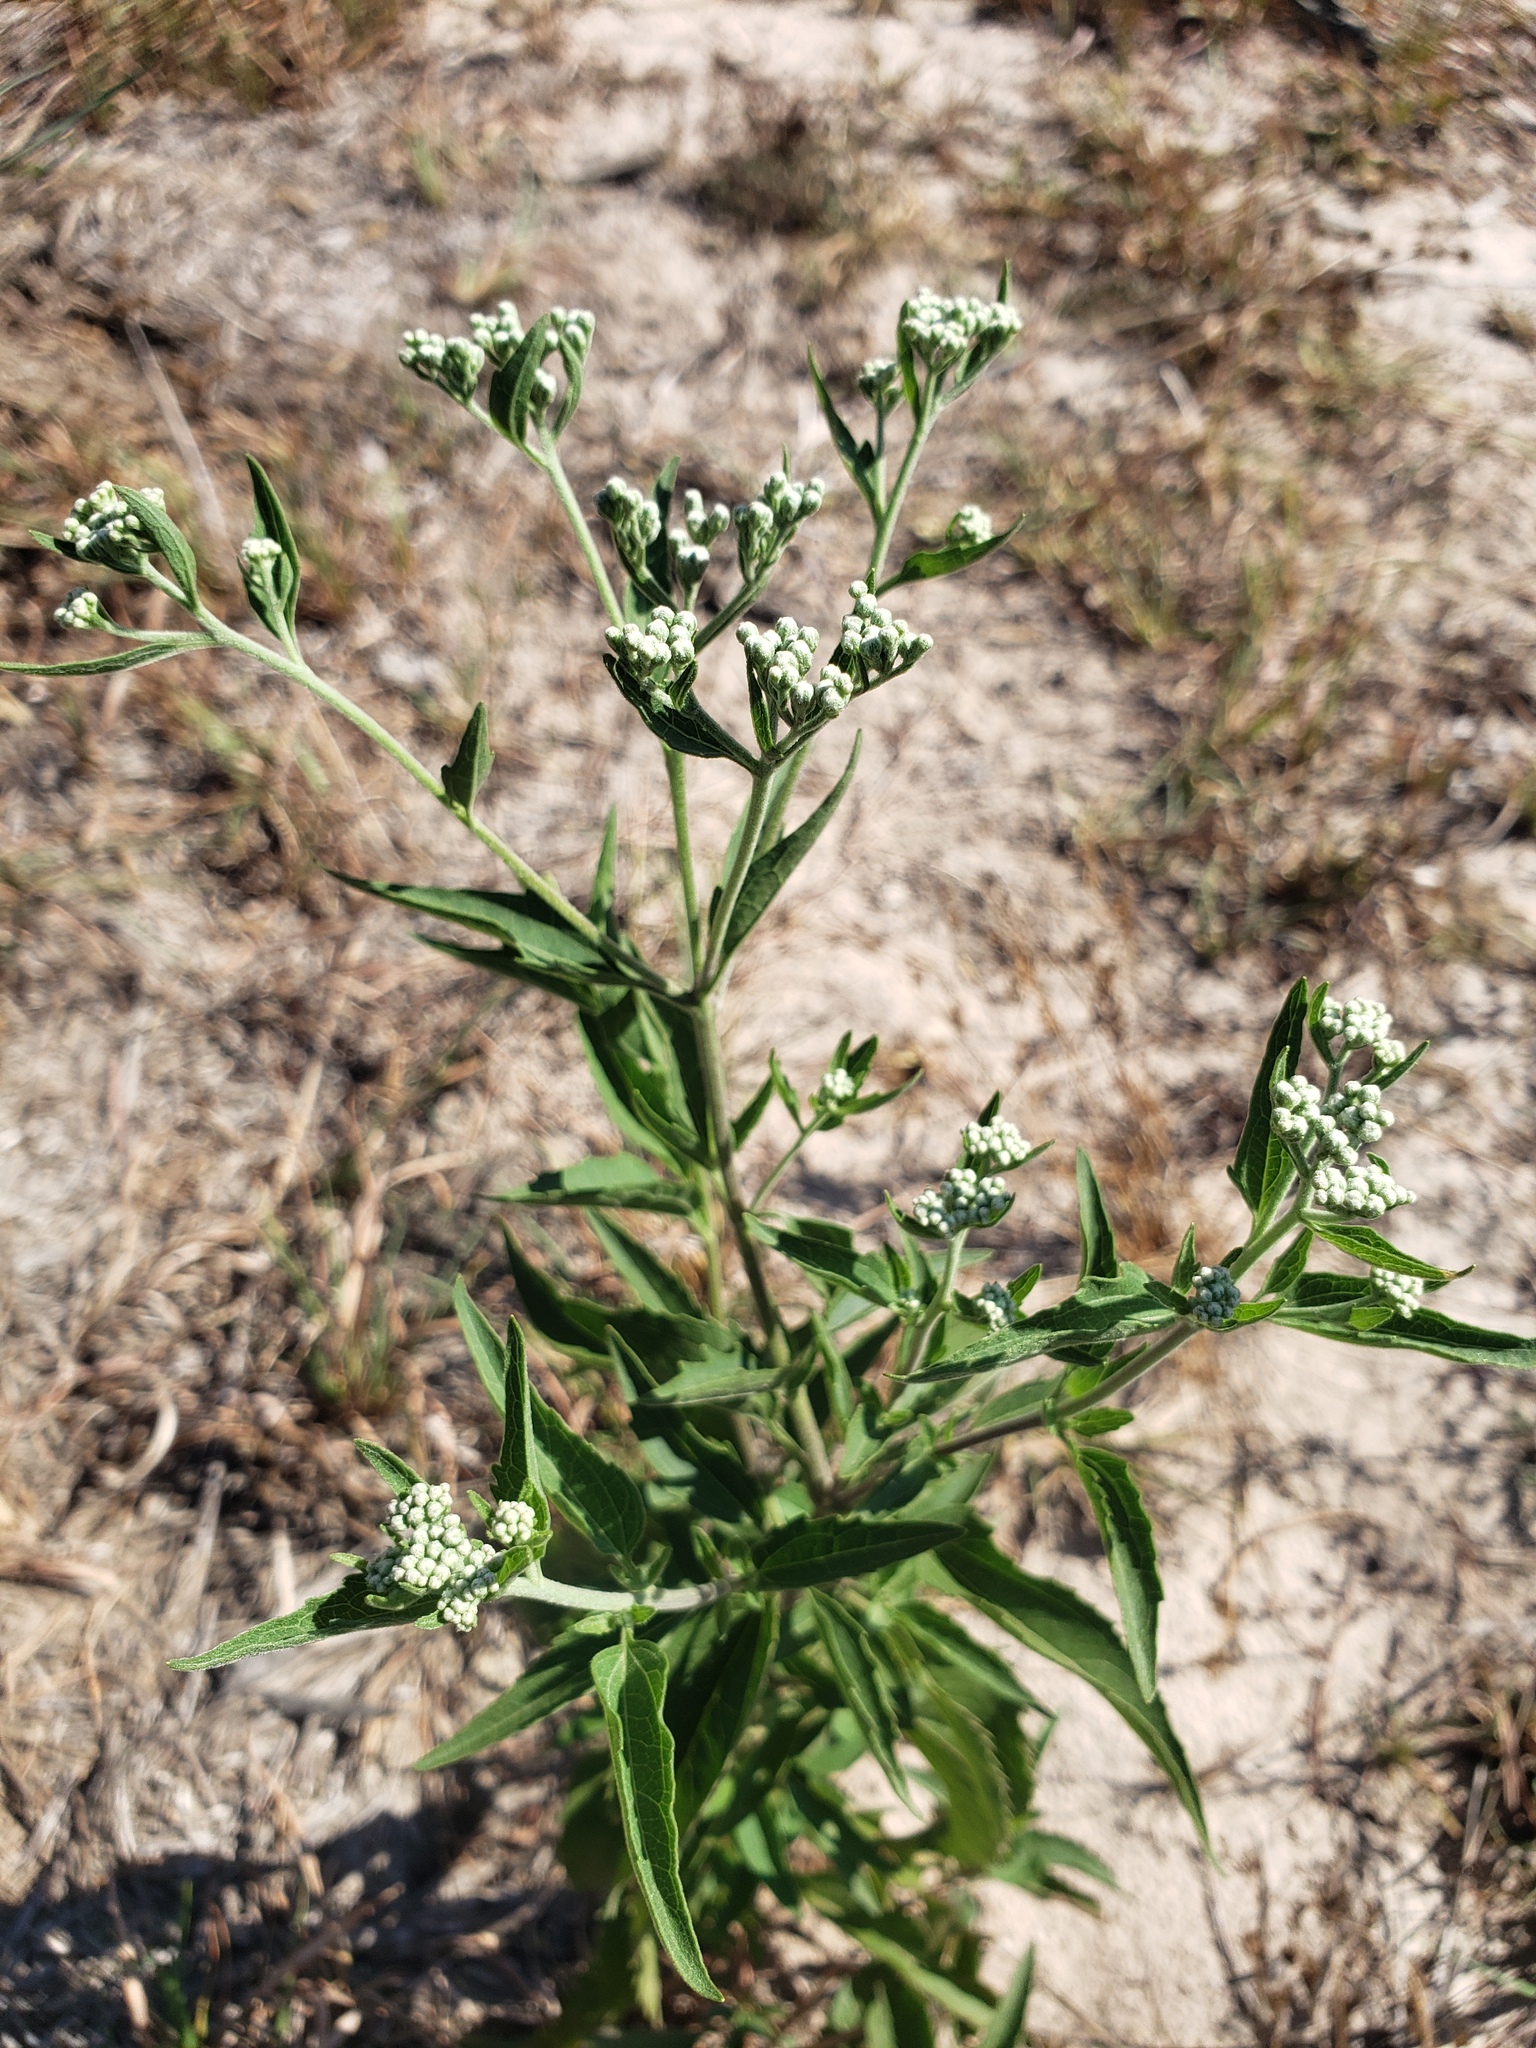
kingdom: Plantae
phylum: Tracheophyta
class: Magnoliopsida
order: Asterales
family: Asteraceae
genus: Eupatorium
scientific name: Eupatorium serotinum
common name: Late boneset
